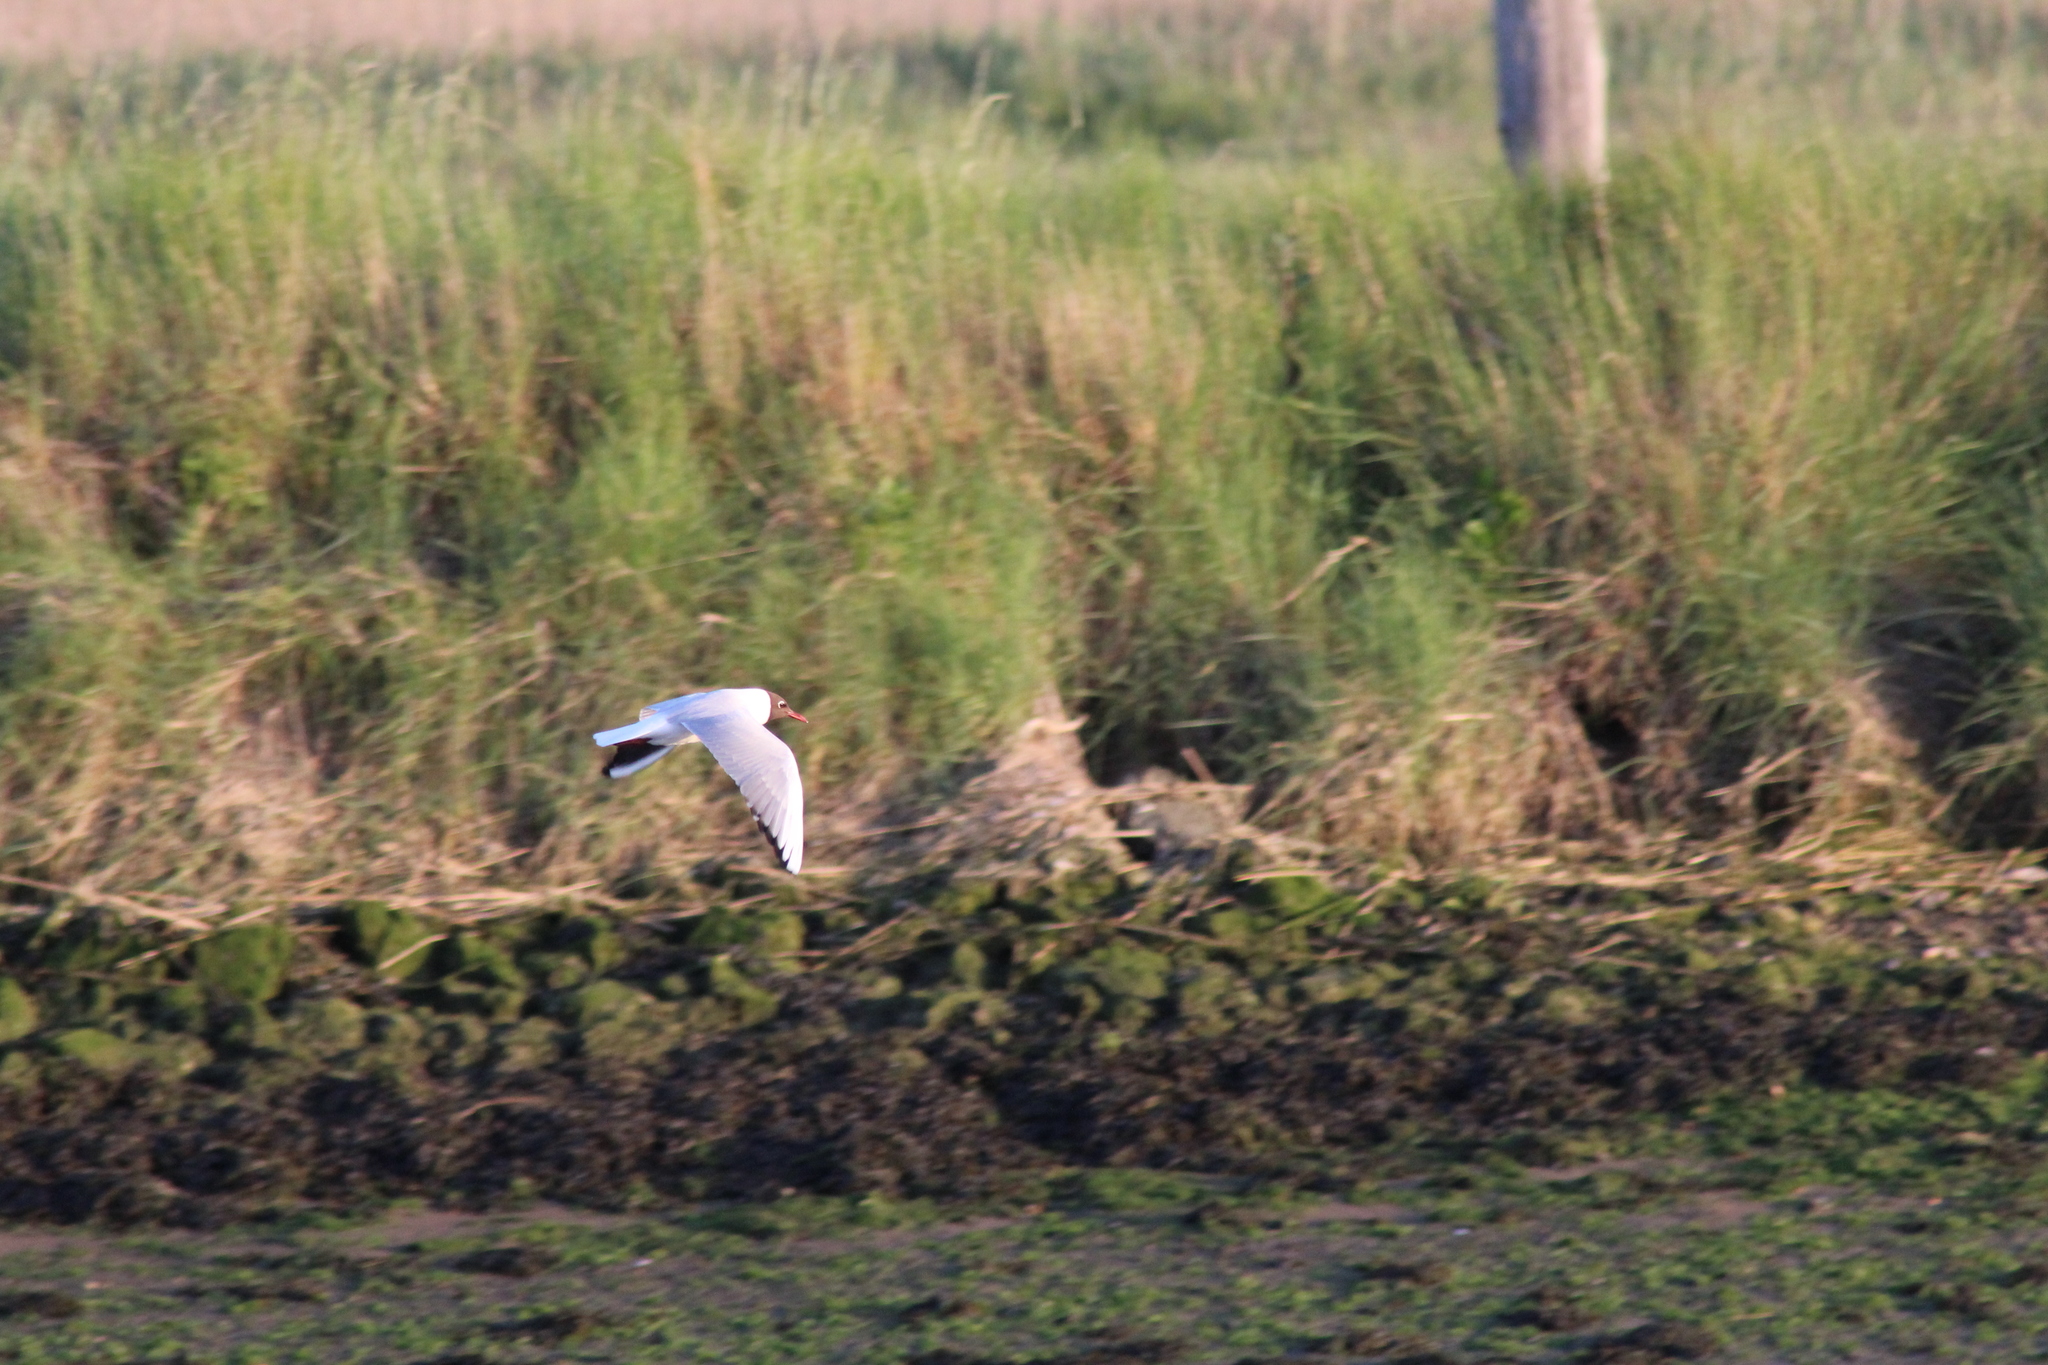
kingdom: Animalia
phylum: Chordata
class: Aves
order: Charadriiformes
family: Laridae
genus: Chroicocephalus
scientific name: Chroicocephalus ridibundus
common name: Black-headed gull
